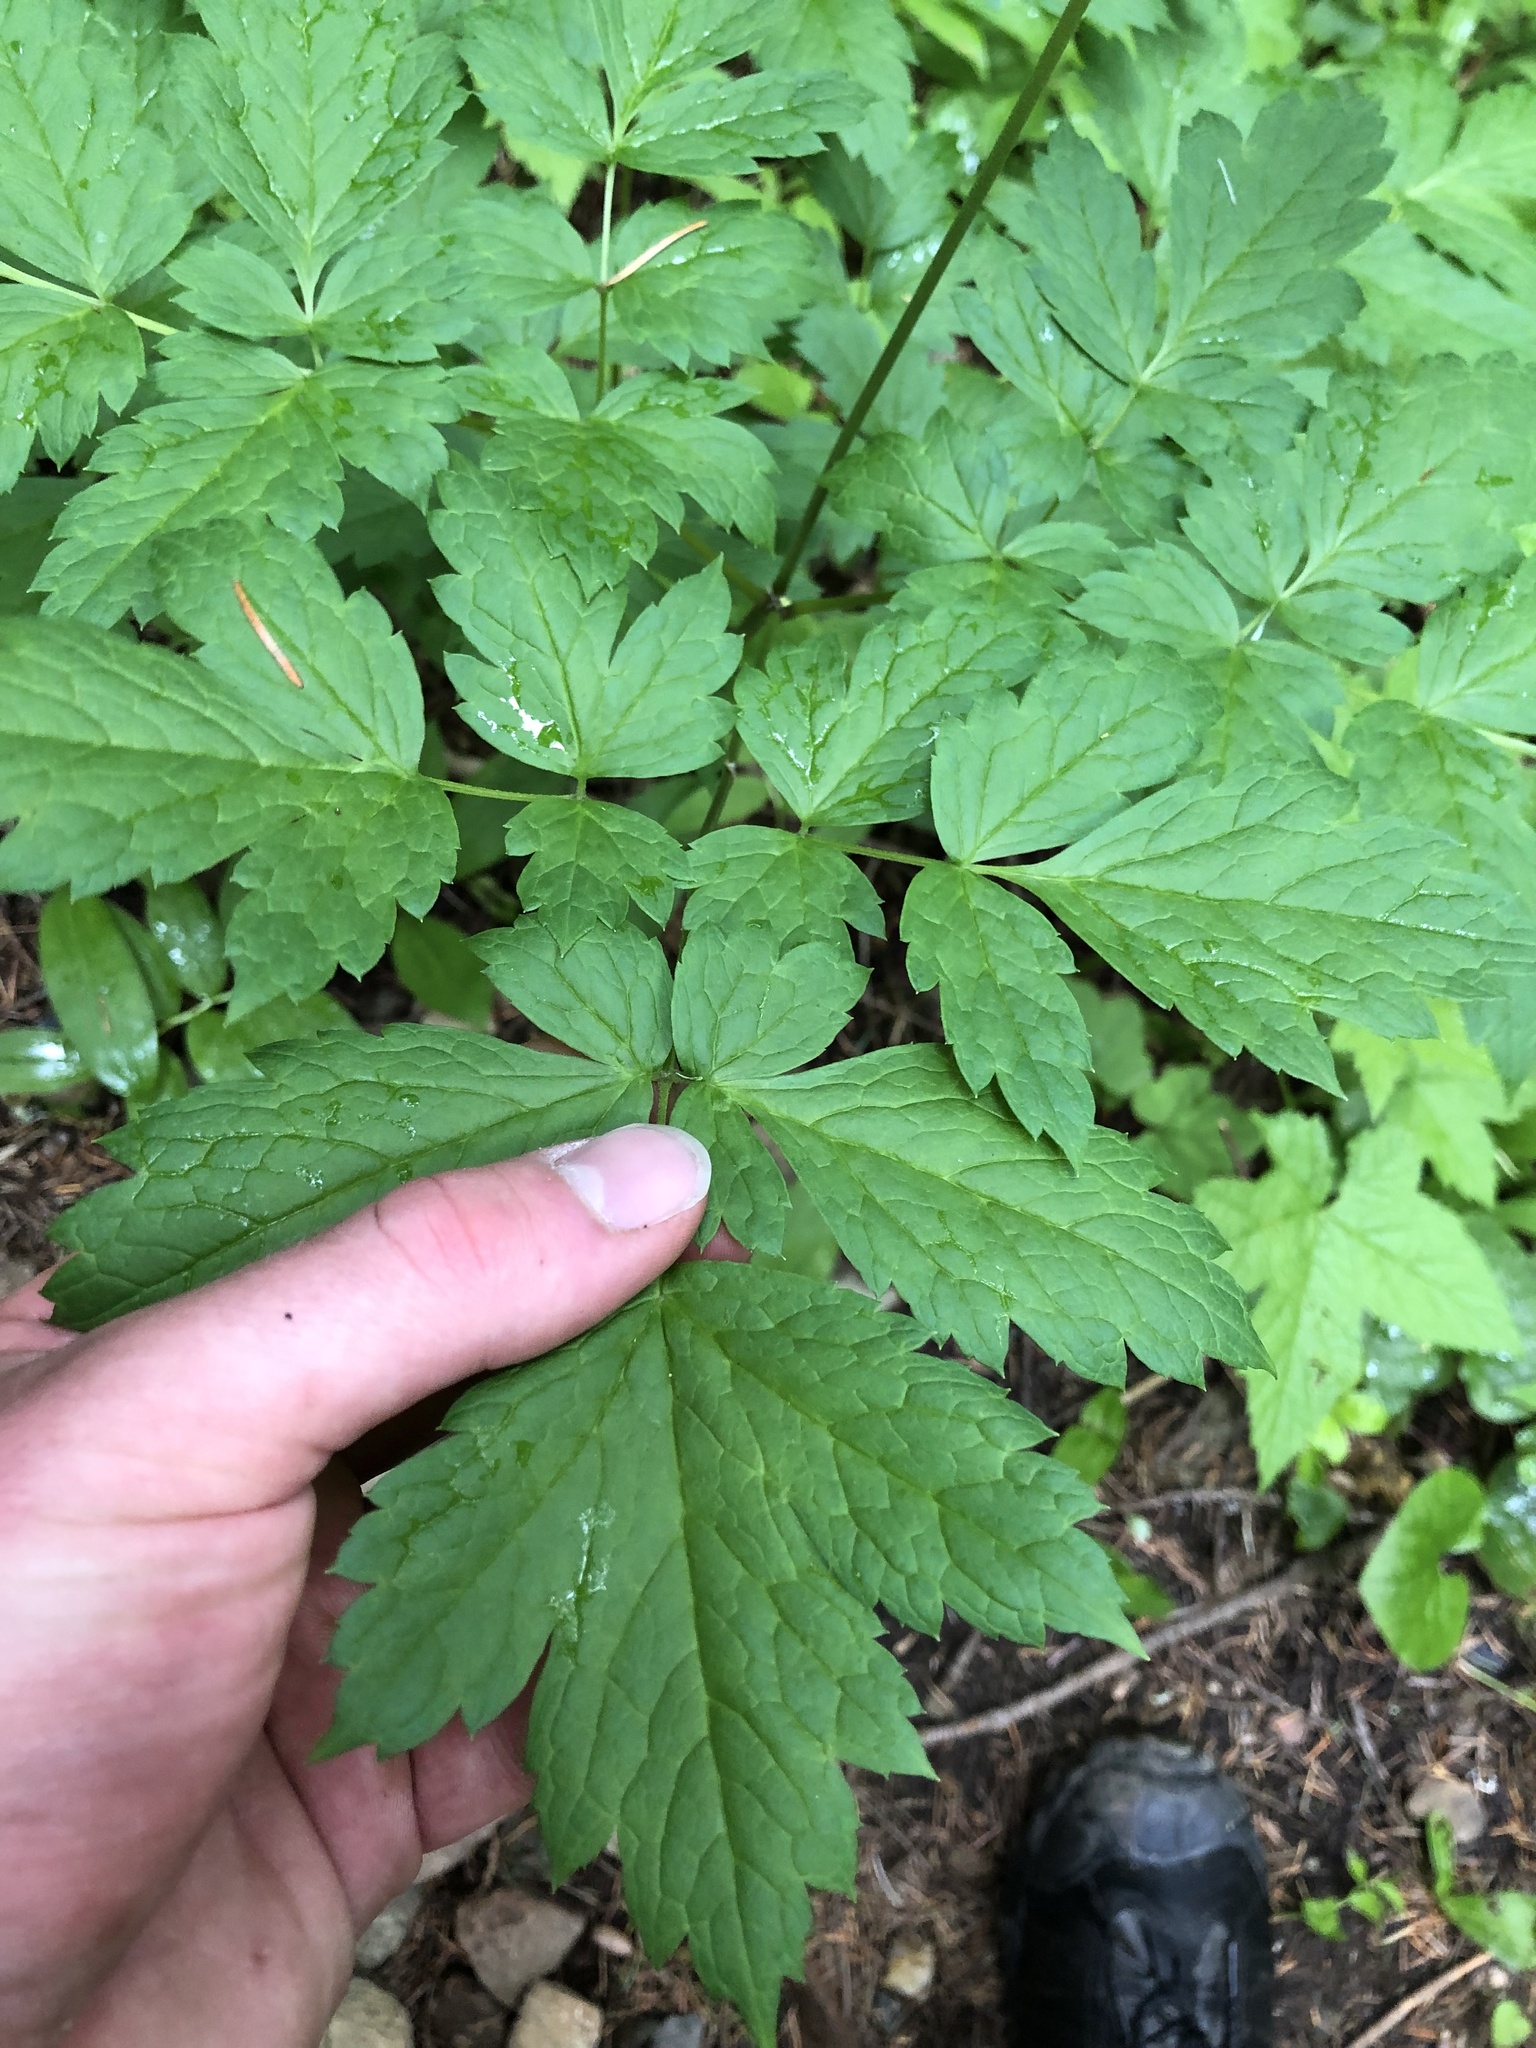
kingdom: Plantae
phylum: Tracheophyta
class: Magnoliopsida
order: Ranunculales
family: Ranunculaceae
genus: Actaea
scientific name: Actaea rubra
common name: Red baneberry
